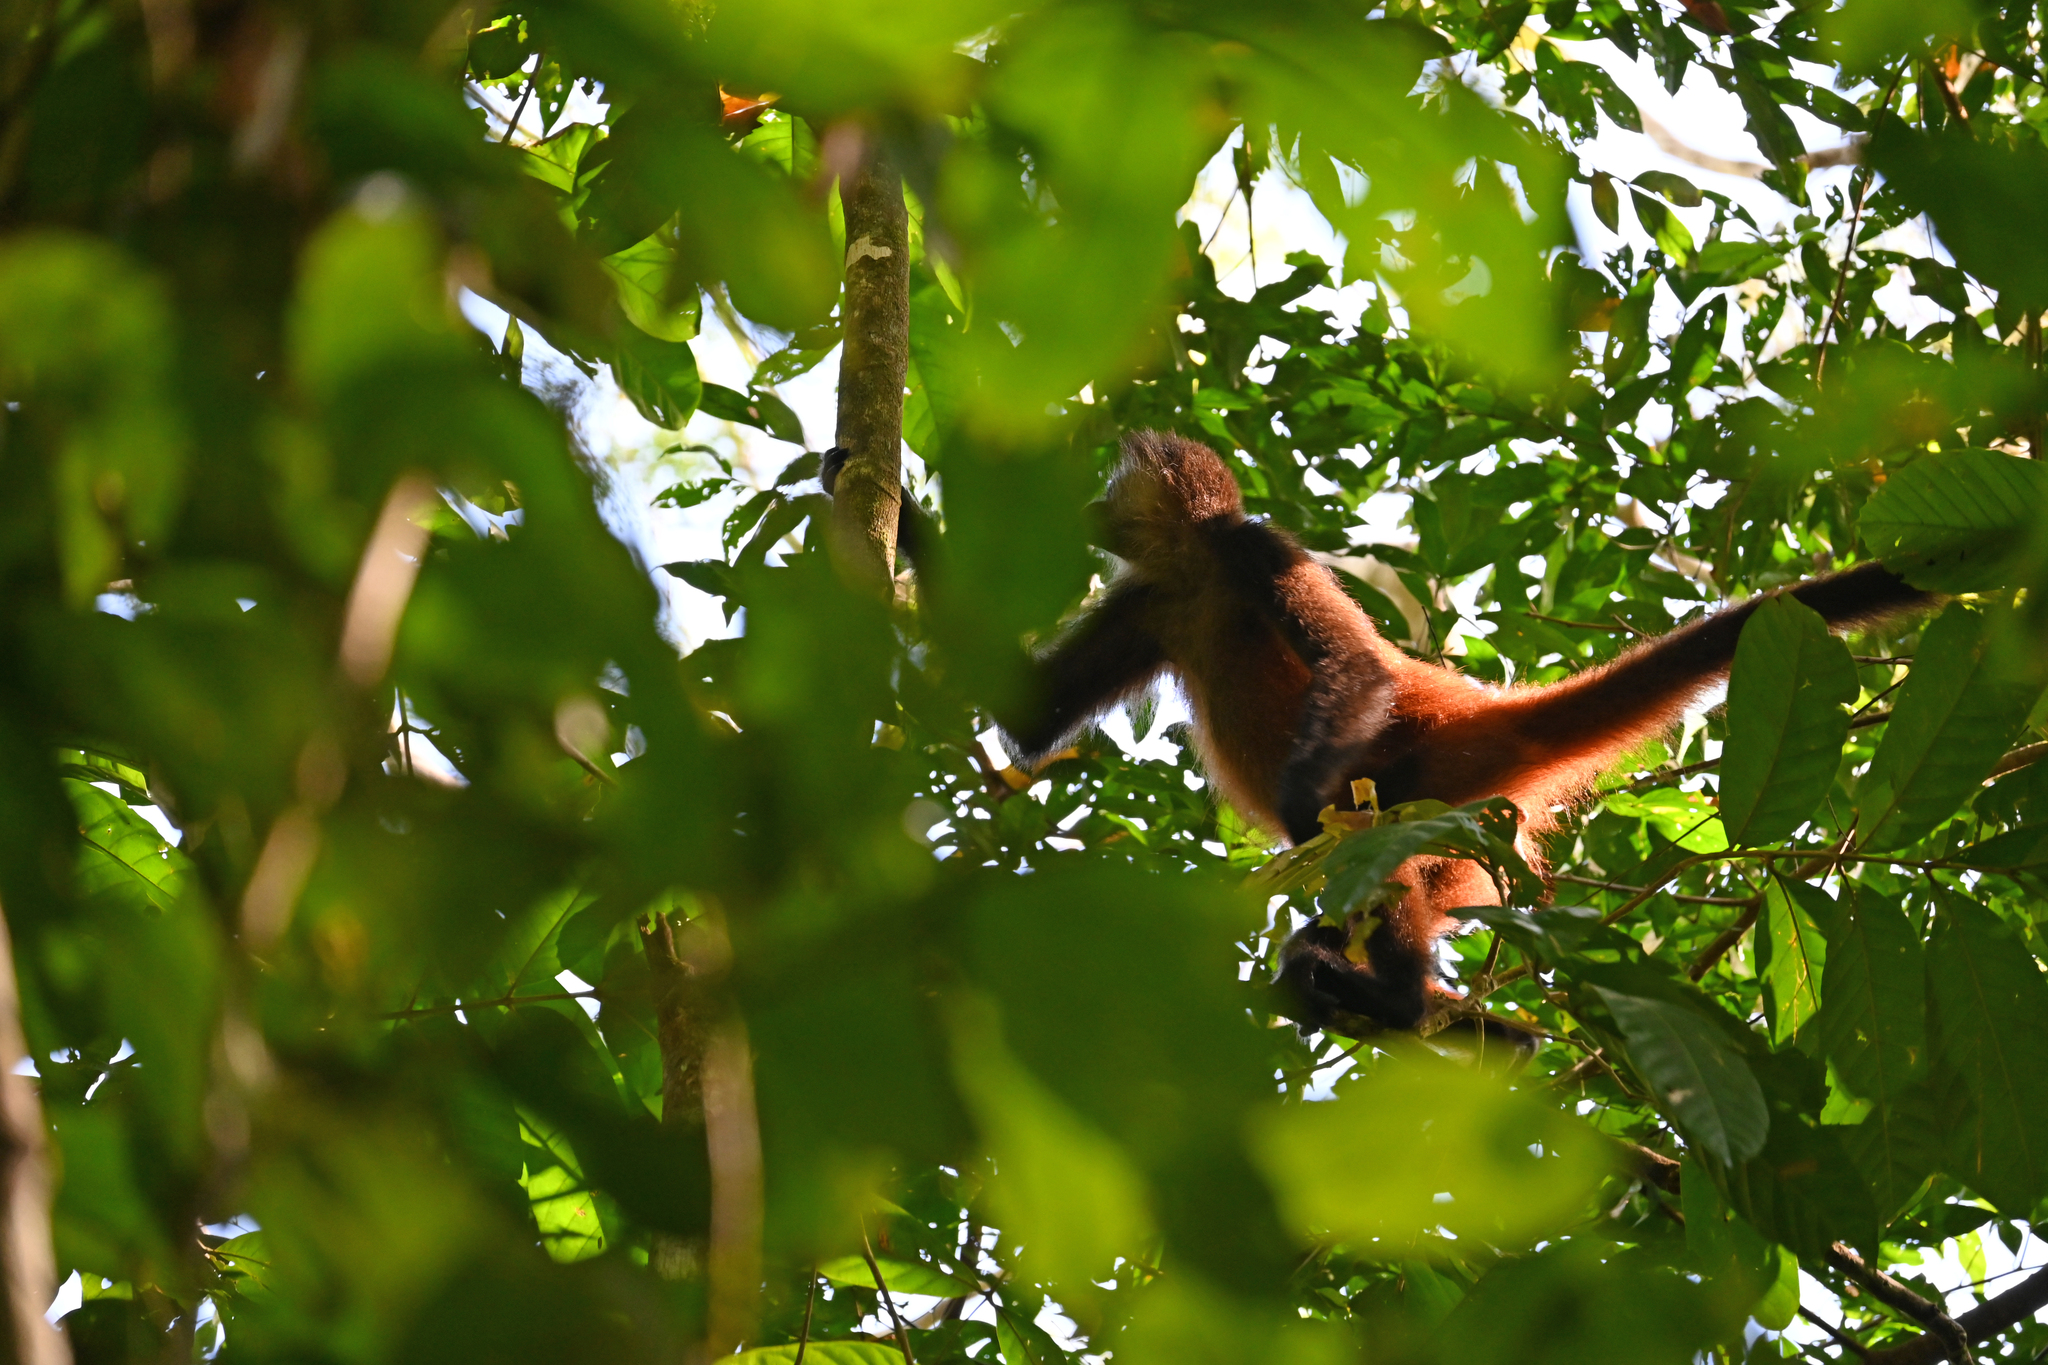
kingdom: Animalia
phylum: Chordata
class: Mammalia
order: Primates
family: Atelidae
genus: Ateles
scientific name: Ateles geoffroyi
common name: Black-handed spider monkey
